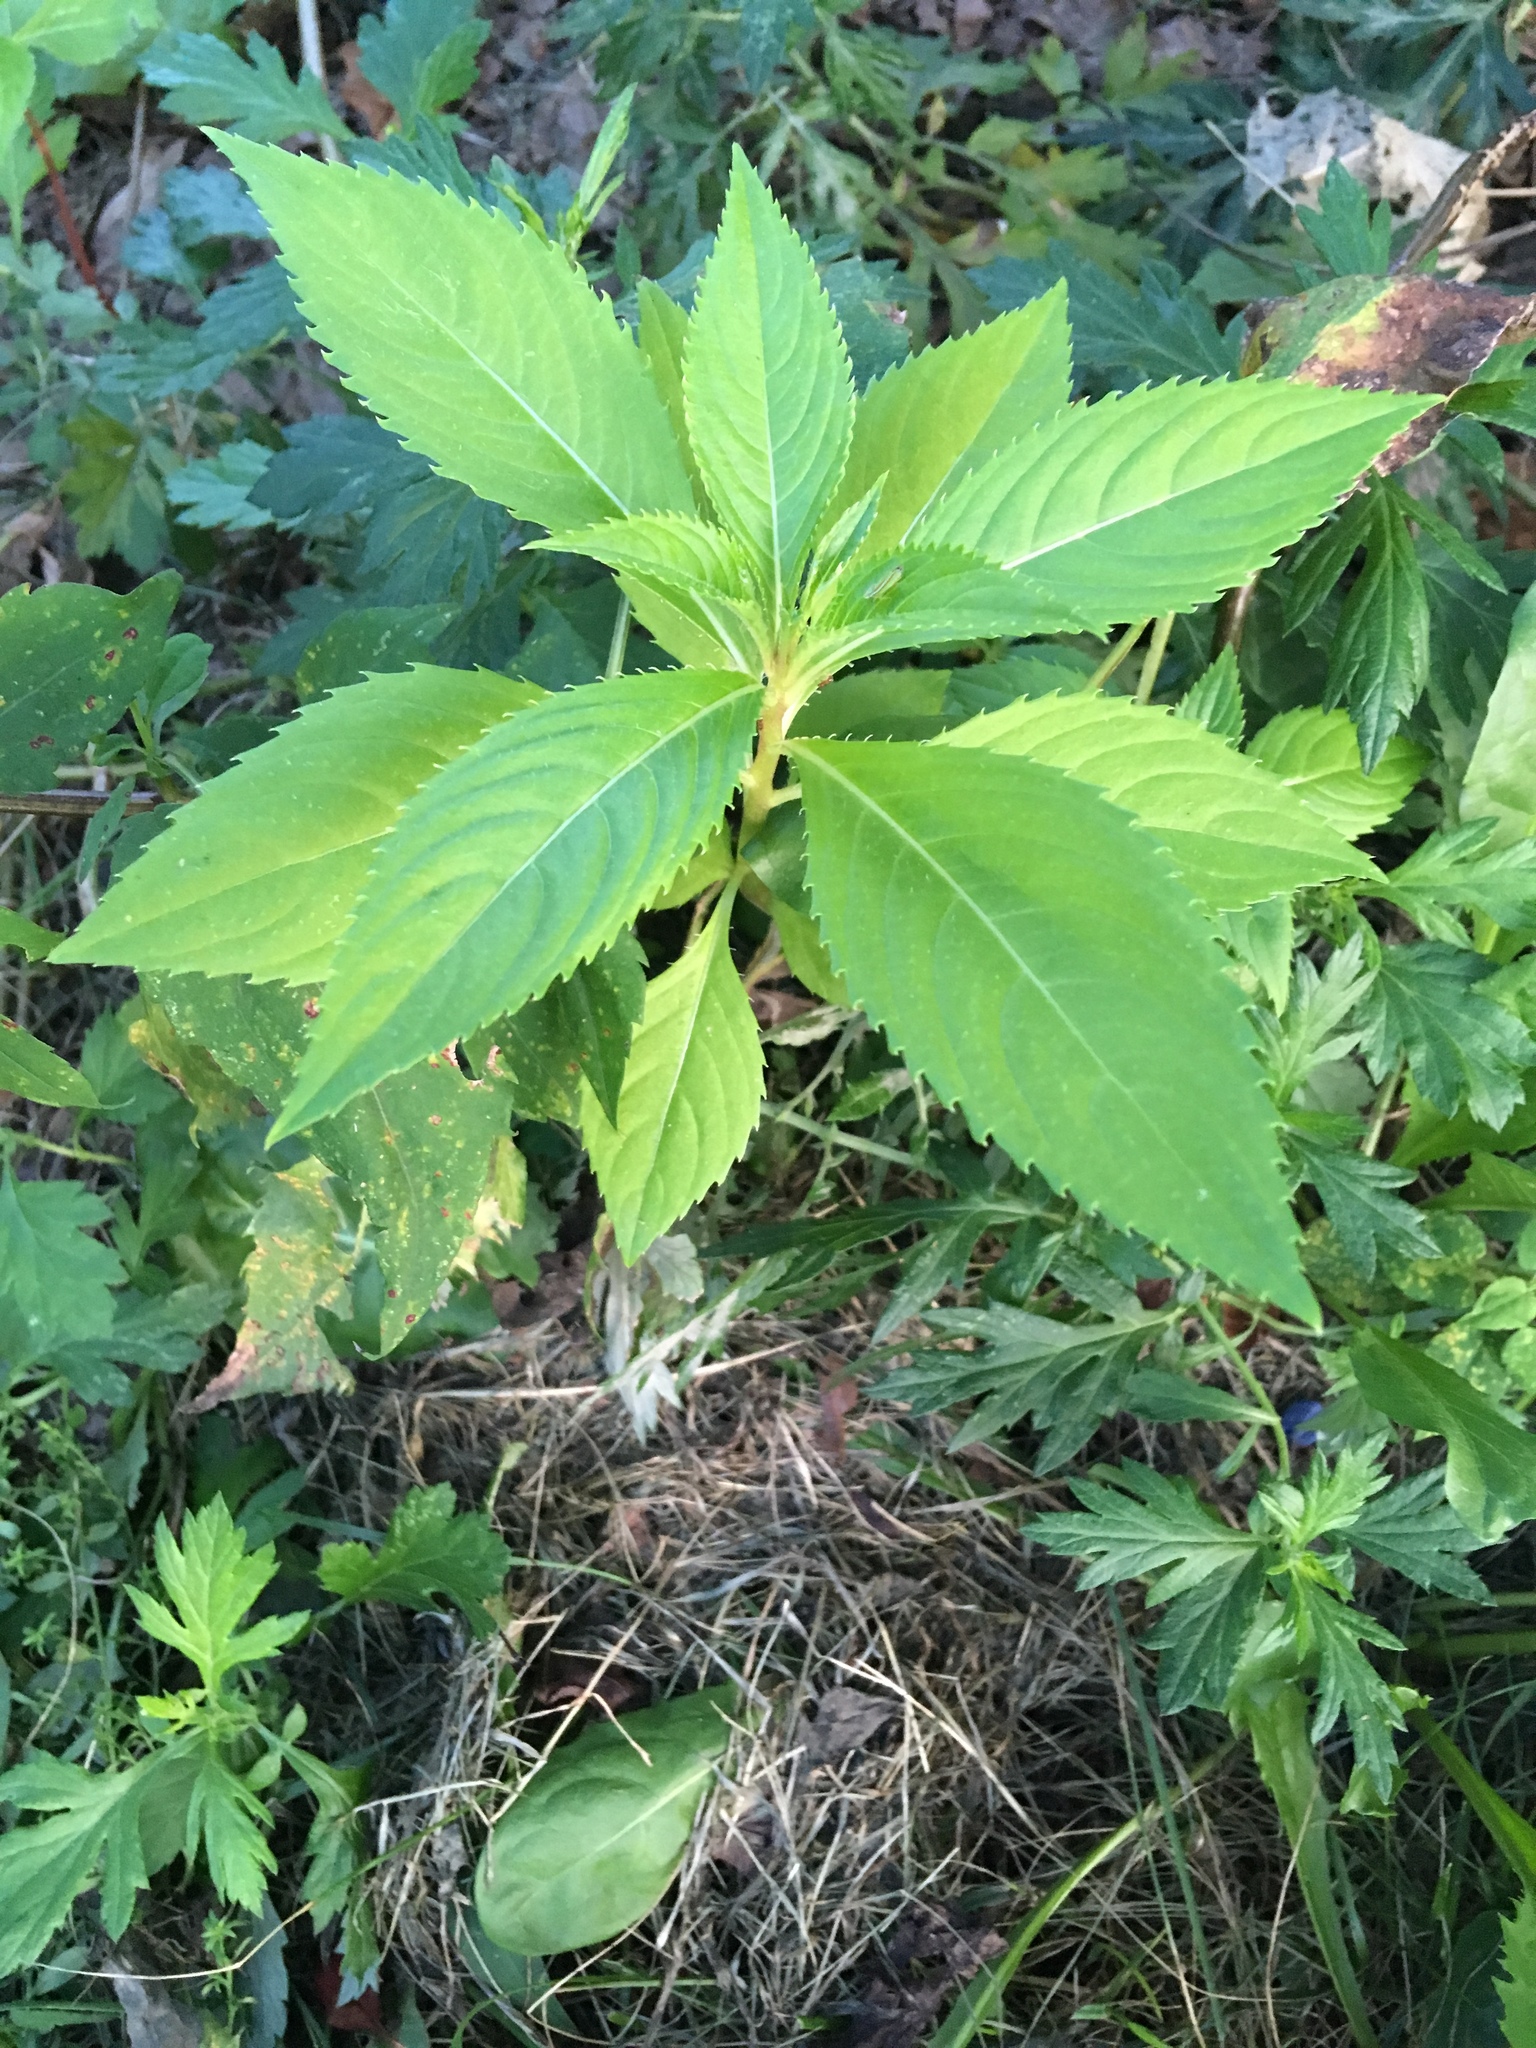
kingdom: Plantae
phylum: Tracheophyta
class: Magnoliopsida
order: Ericales
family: Balsaminaceae
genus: Impatiens
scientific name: Impatiens balsamina
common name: Balsam
